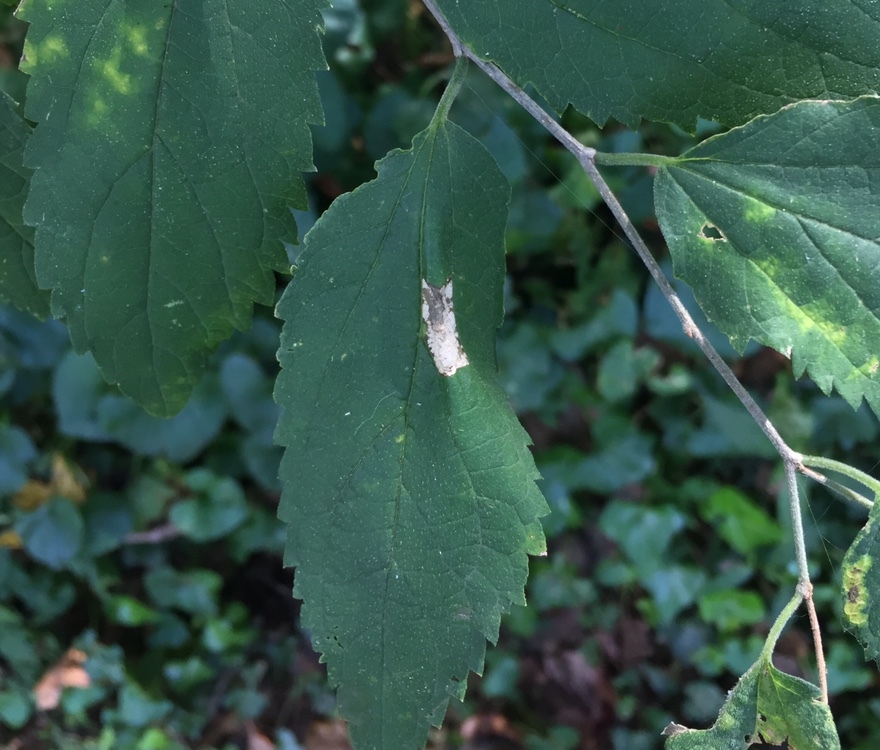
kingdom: Animalia
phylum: Arthropoda
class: Insecta
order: Lepidoptera
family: Gracillariidae
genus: Phyllonorycter
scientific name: Phyllonorycter celtifoliella
